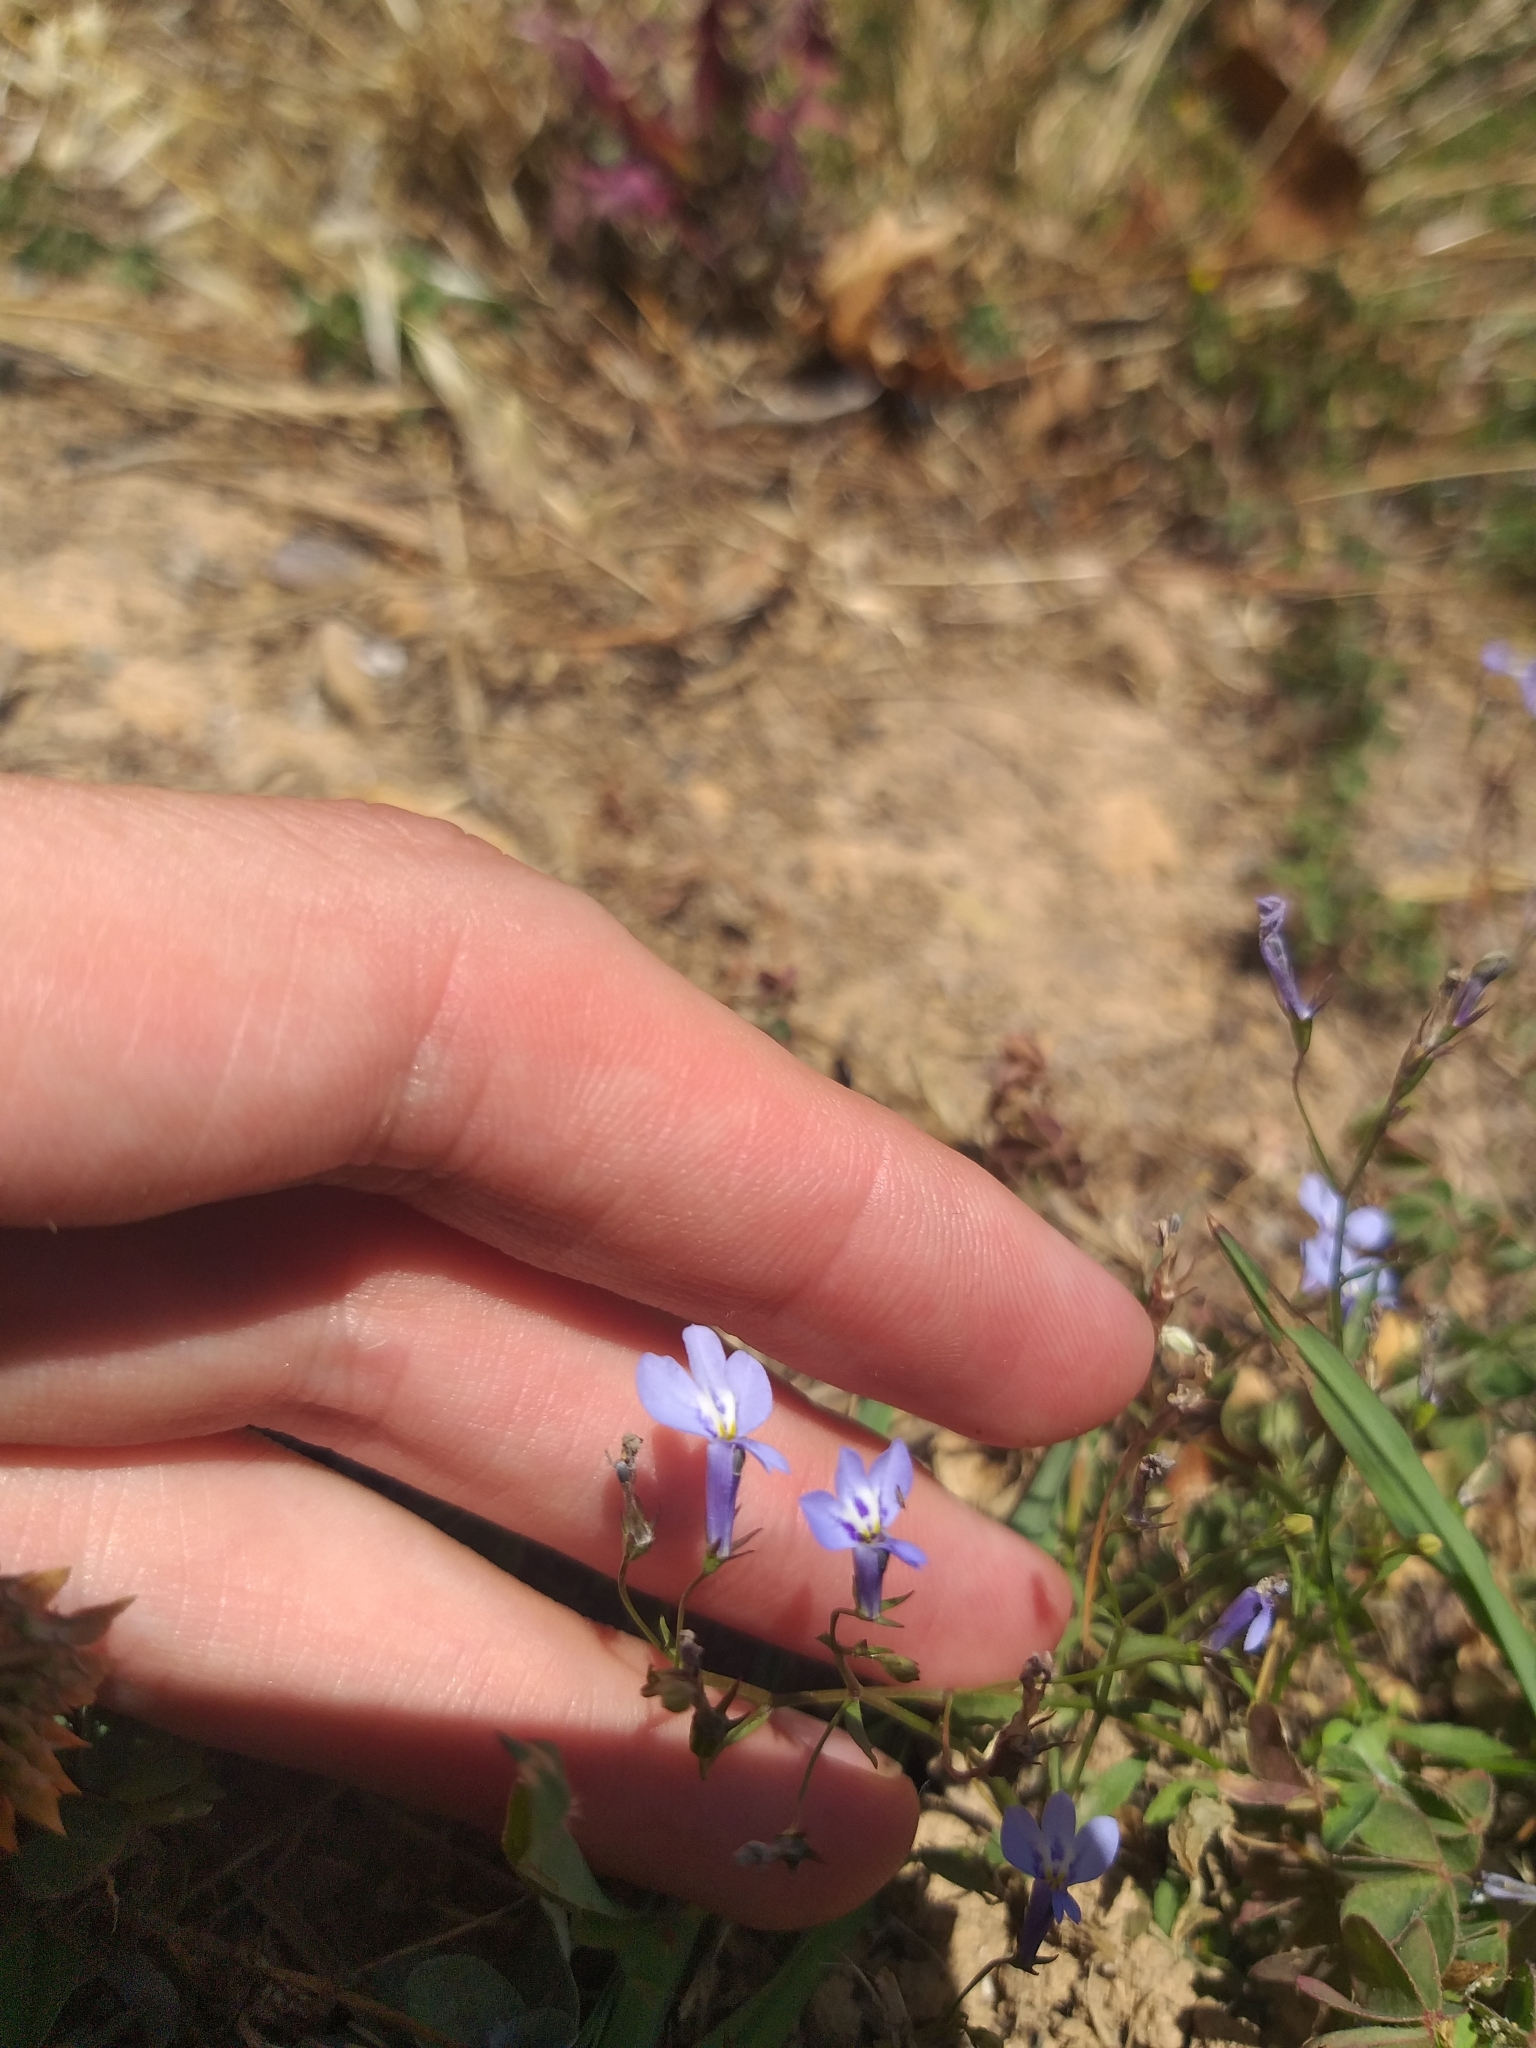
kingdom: Plantae
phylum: Tracheophyta
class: Magnoliopsida
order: Asterales
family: Campanulaceae
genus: Lobelia
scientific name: Lobelia erinus
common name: Edging lobelia
